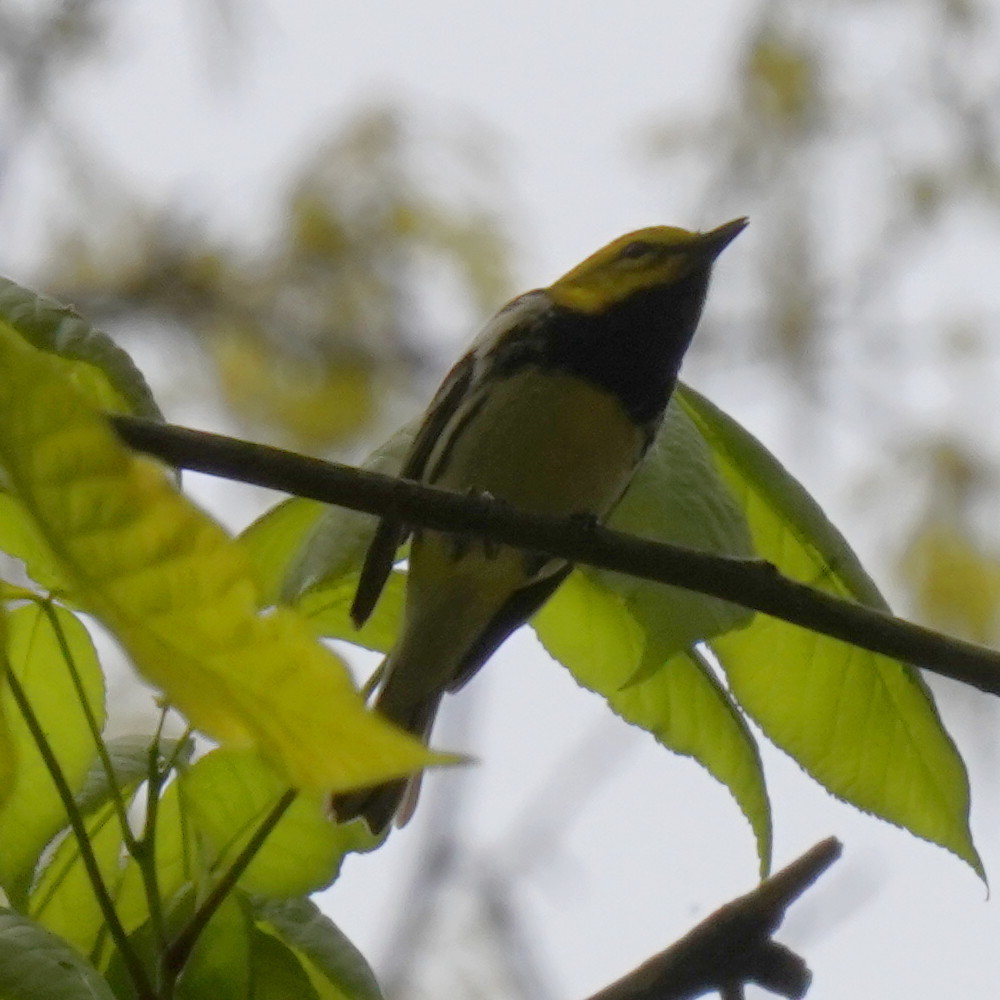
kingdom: Animalia
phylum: Chordata
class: Aves
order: Passeriformes
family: Parulidae
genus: Setophaga
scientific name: Setophaga virens
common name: Black-throated green warbler
